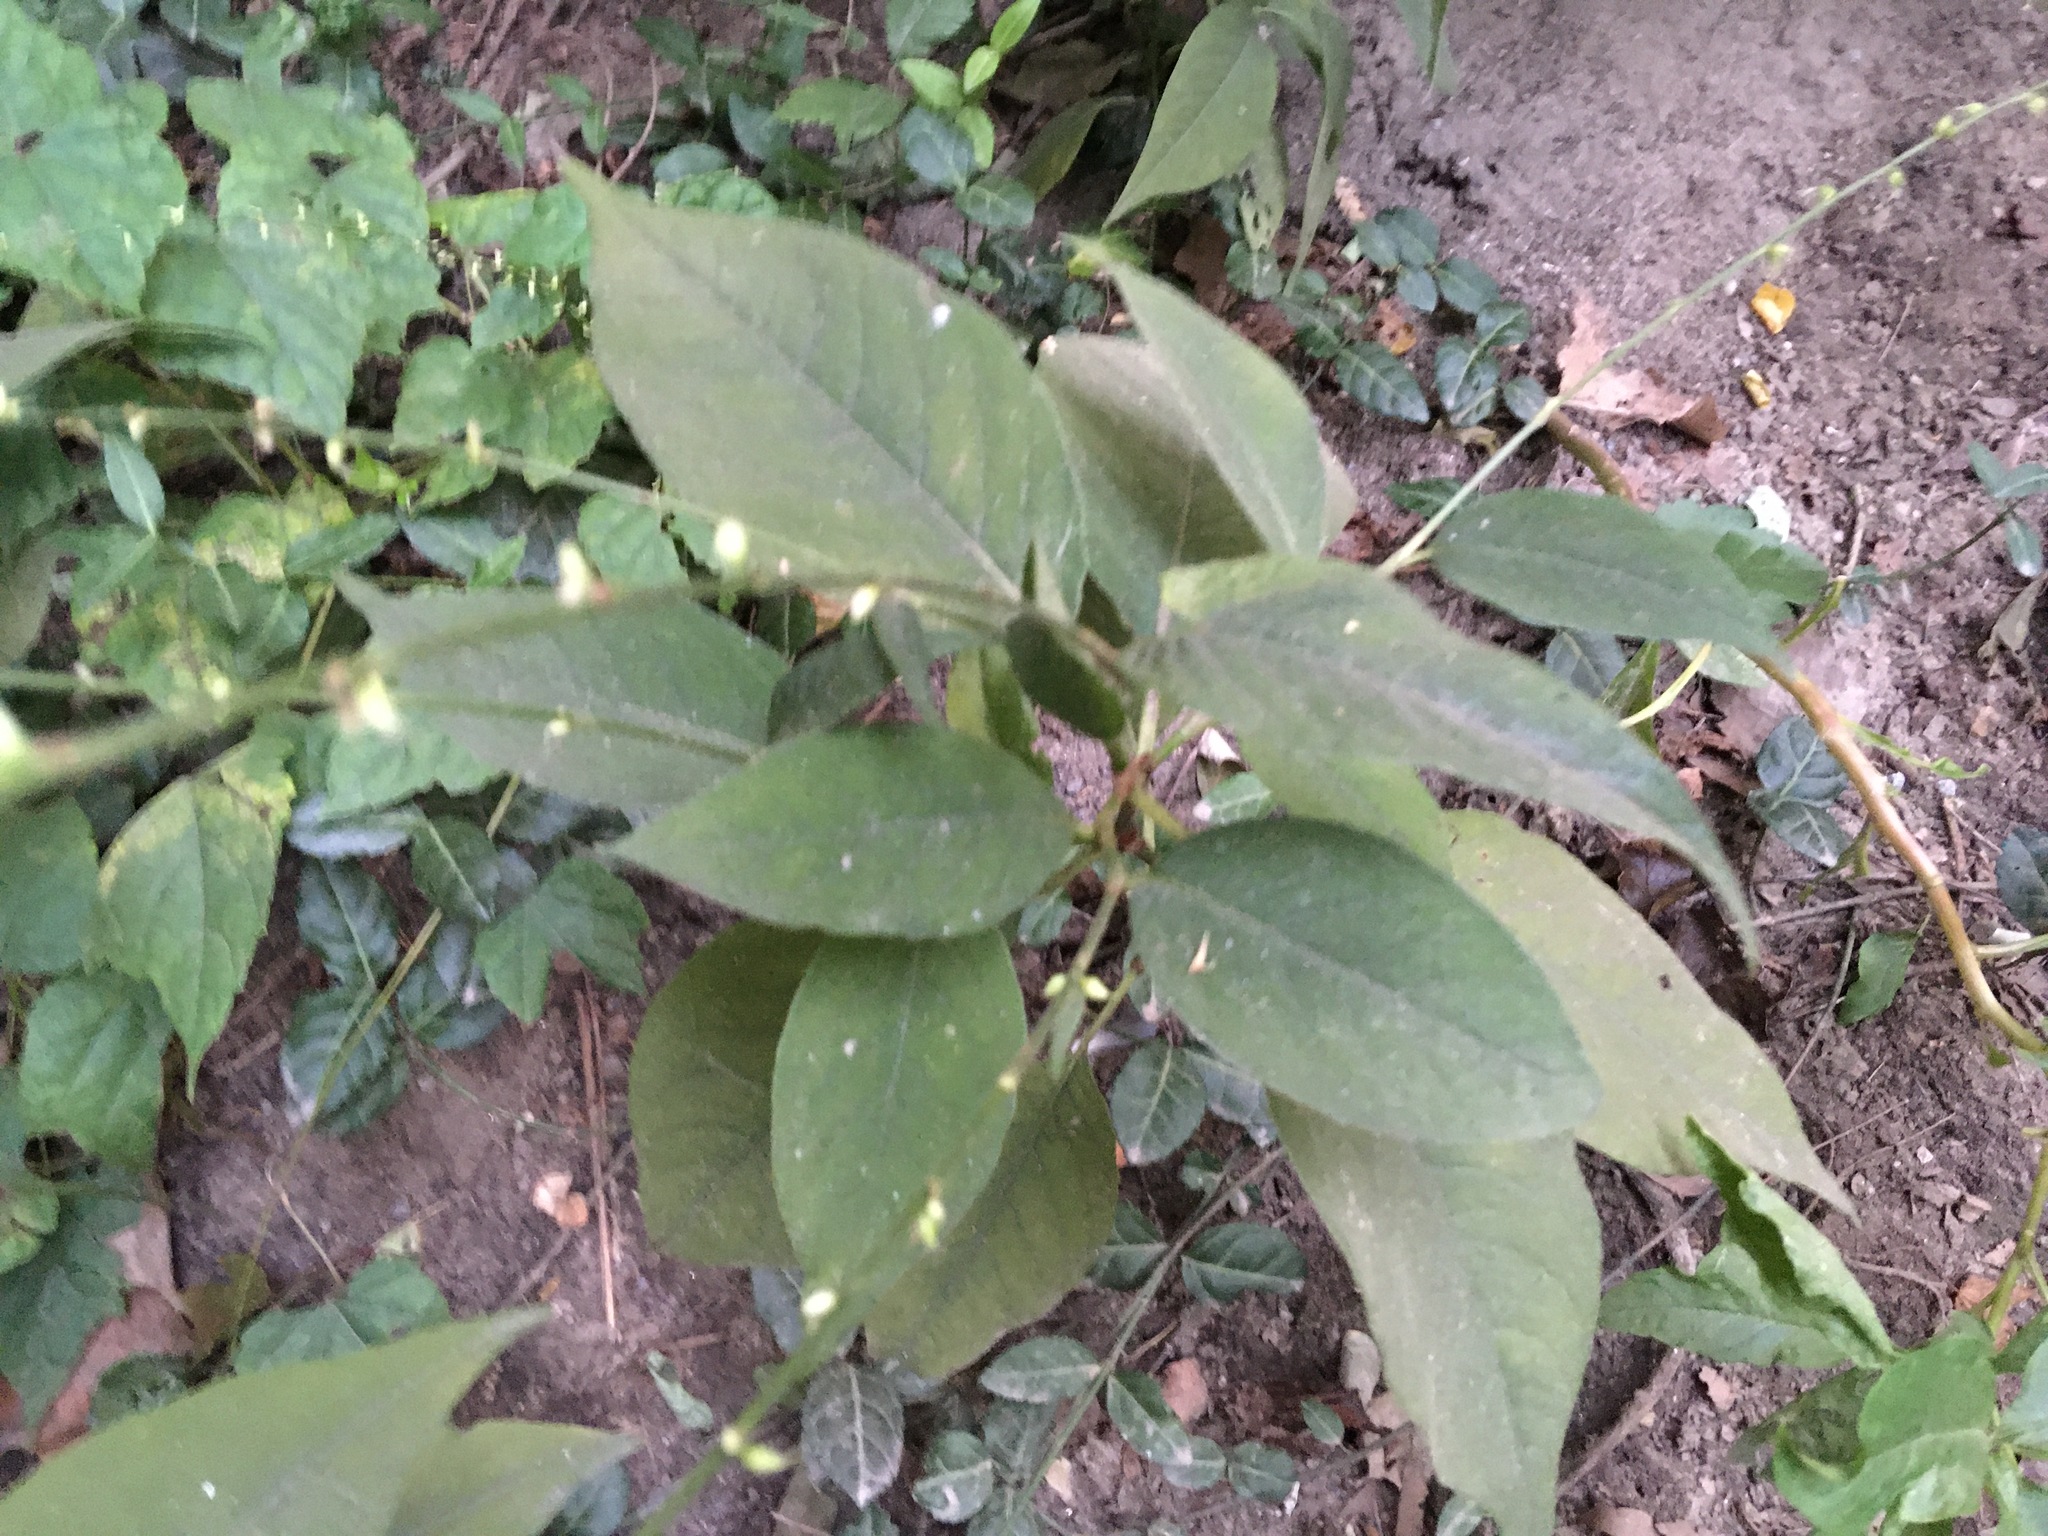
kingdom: Plantae
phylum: Tracheophyta
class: Magnoliopsida
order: Caryophyllales
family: Polygonaceae
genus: Persicaria
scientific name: Persicaria virginiana
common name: Jumpseed
